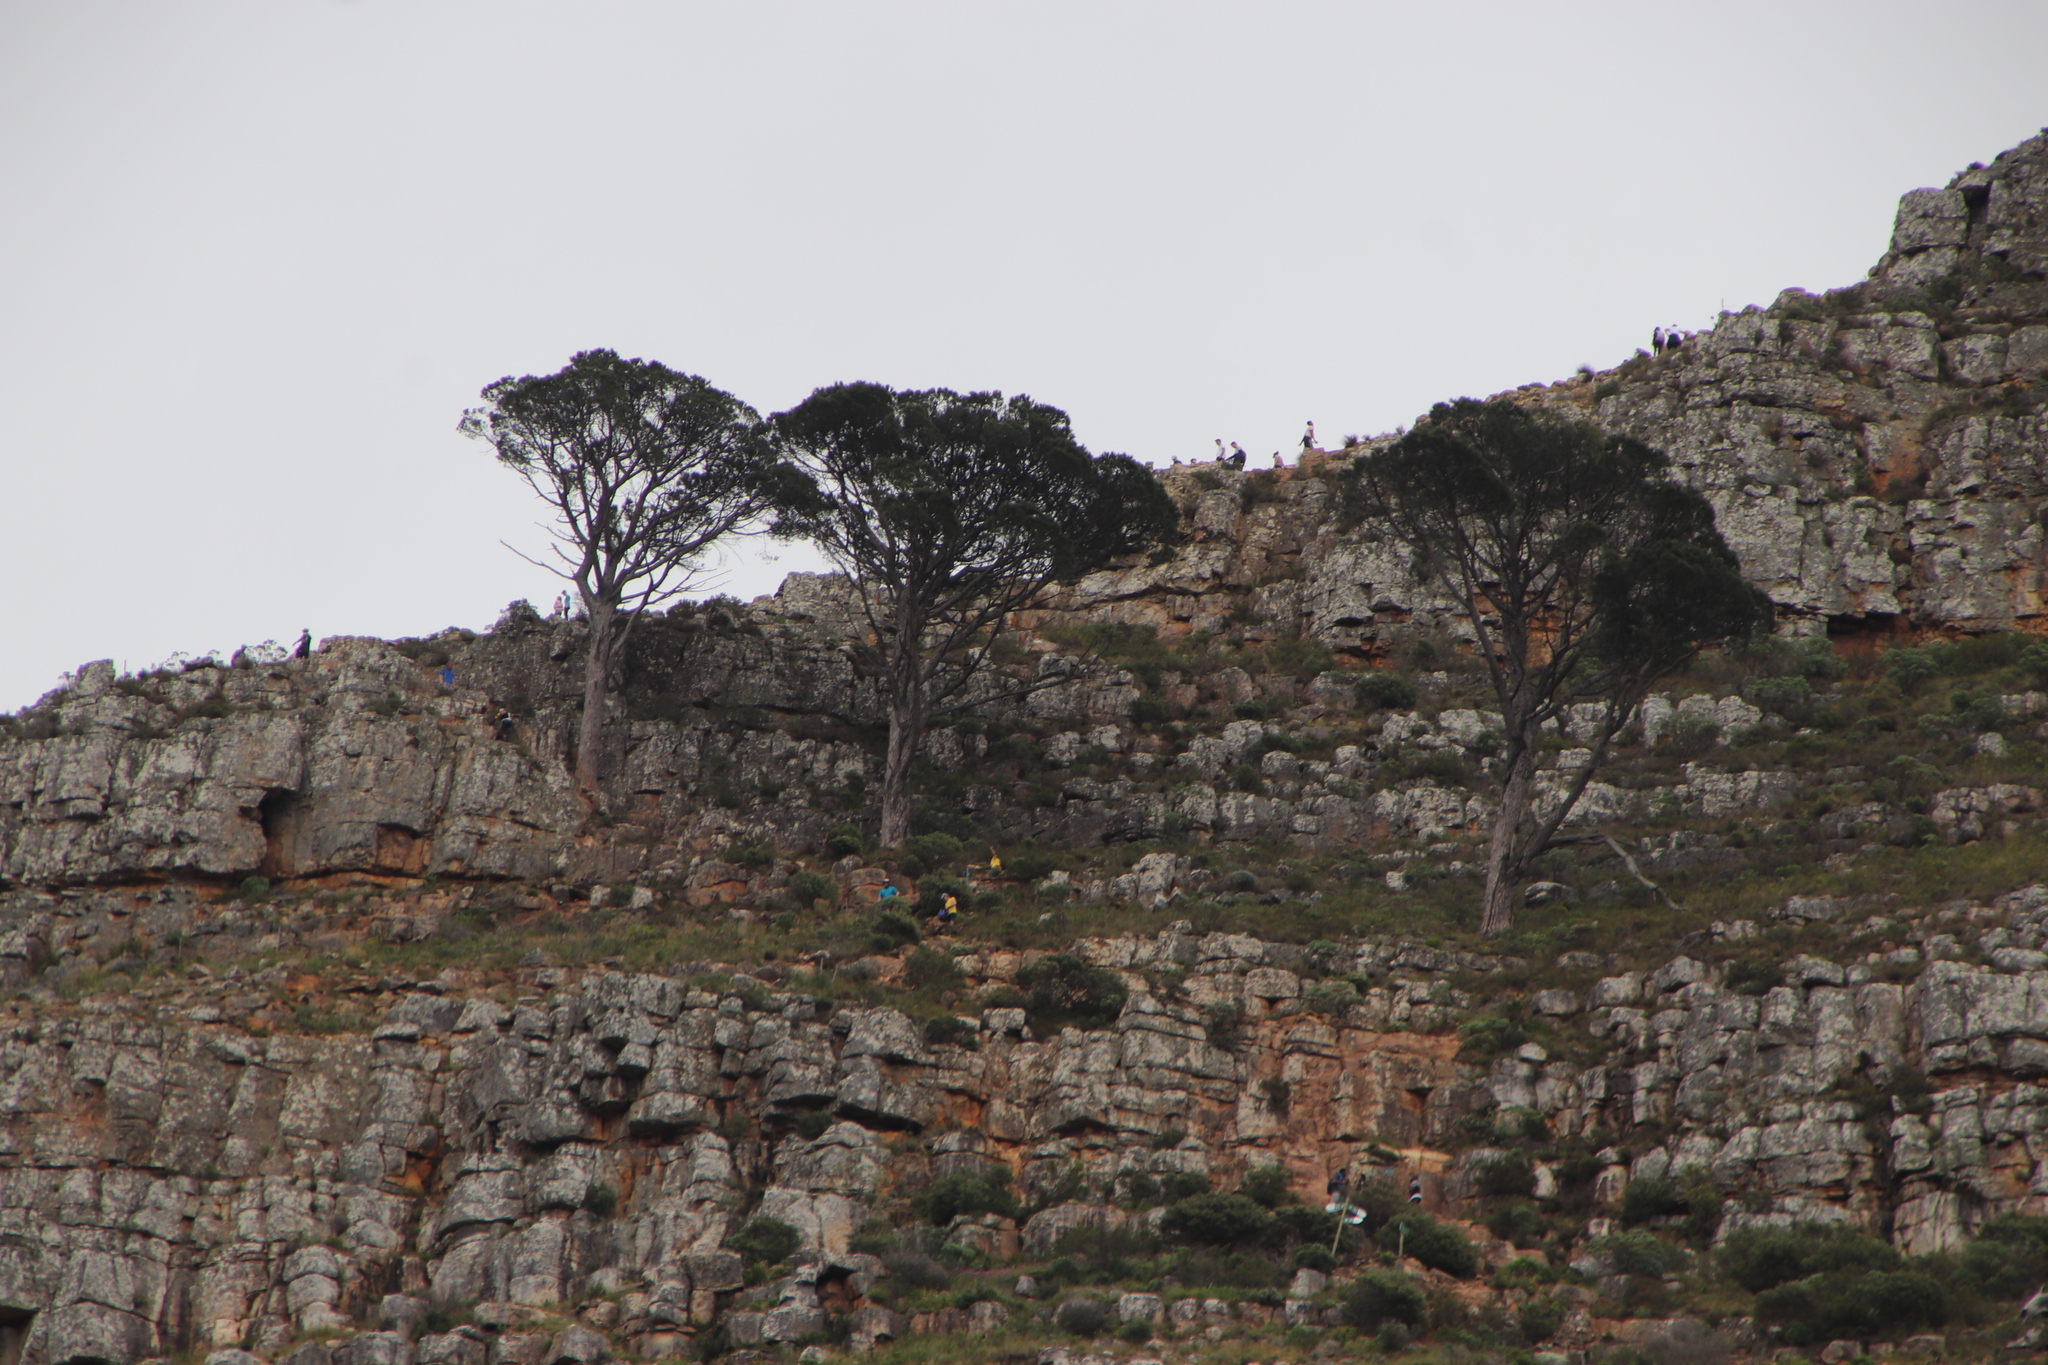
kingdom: Plantae
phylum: Tracheophyta
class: Pinopsida
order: Pinales
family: Pinaceae
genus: Pinus
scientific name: Pinus pinea
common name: Italian stone pine
